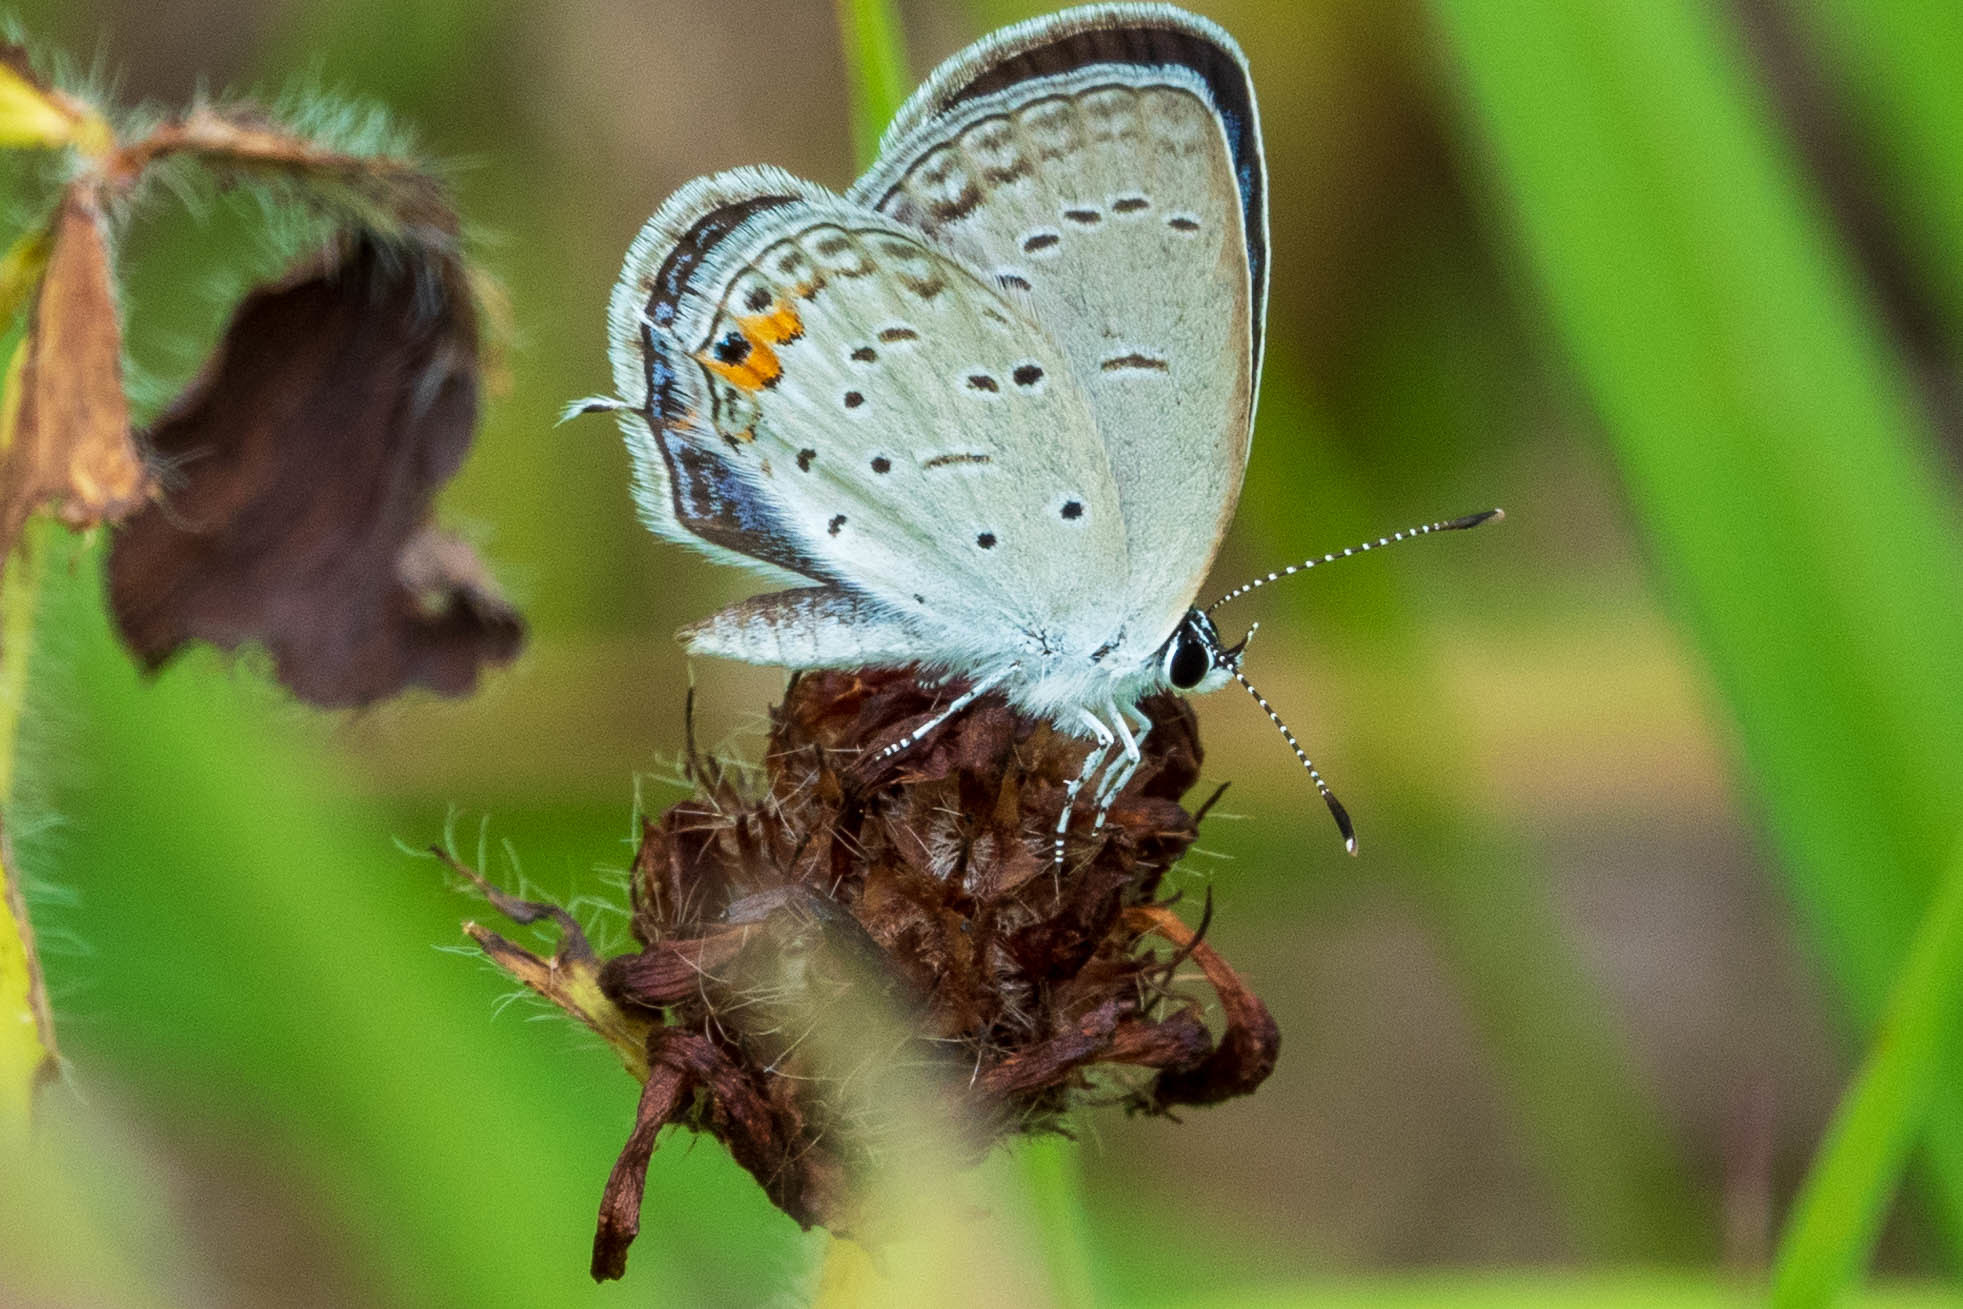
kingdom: Animalia
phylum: Arthropoda
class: Insecta
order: Lepidoptera
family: Lycaenidae
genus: Elkalyce
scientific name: Elkalyce comyntas
